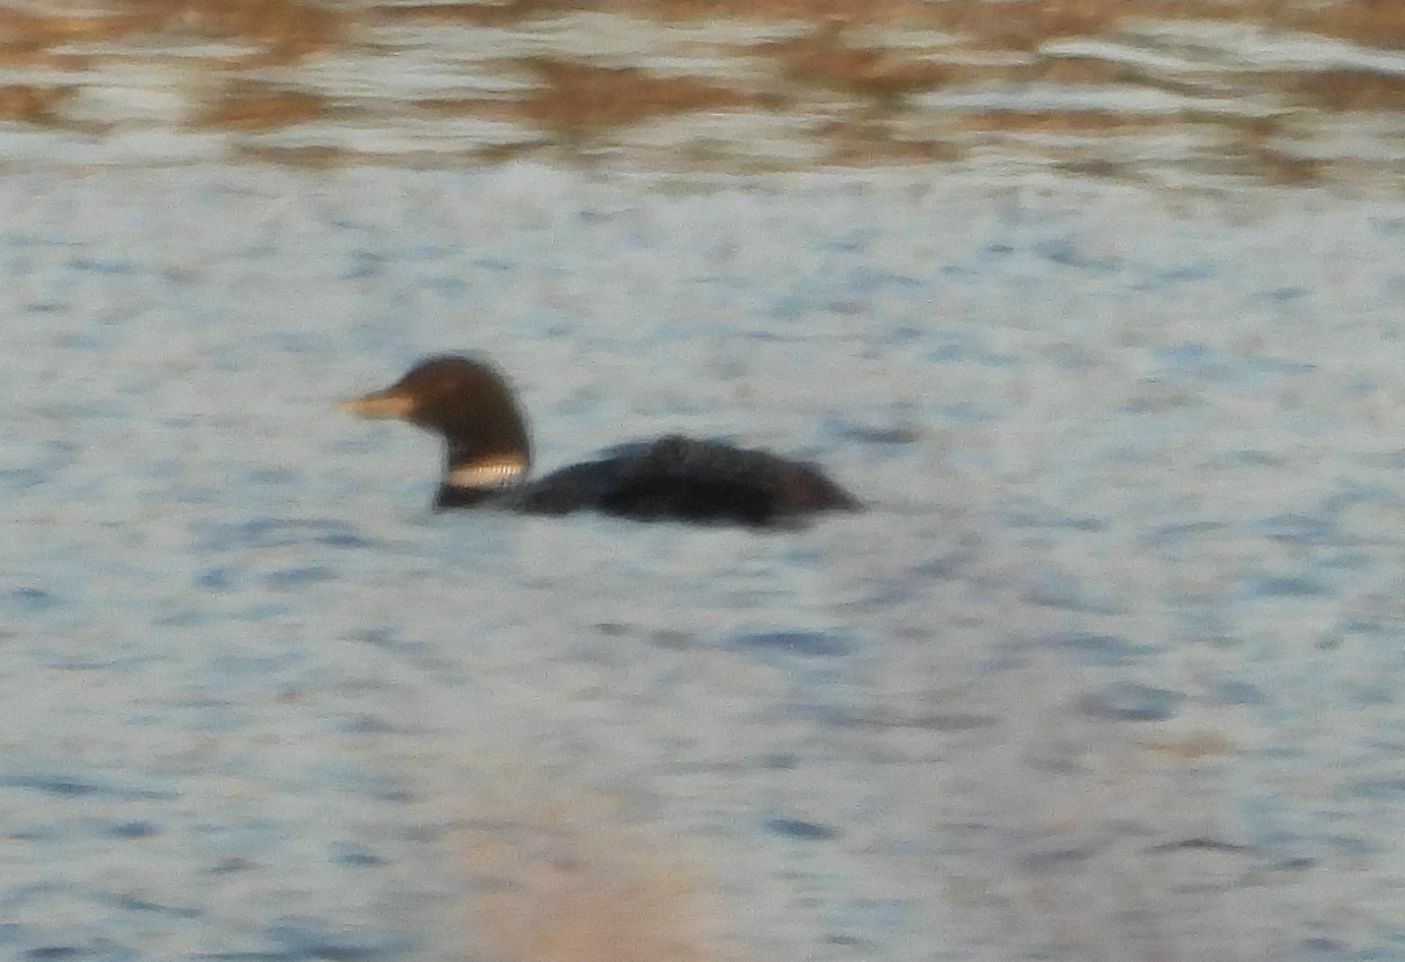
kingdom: Animalia
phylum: Chordata
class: Aves
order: Gaviiformes
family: Gaviidae
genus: Gavia
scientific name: Gavia immer
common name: Common loon
